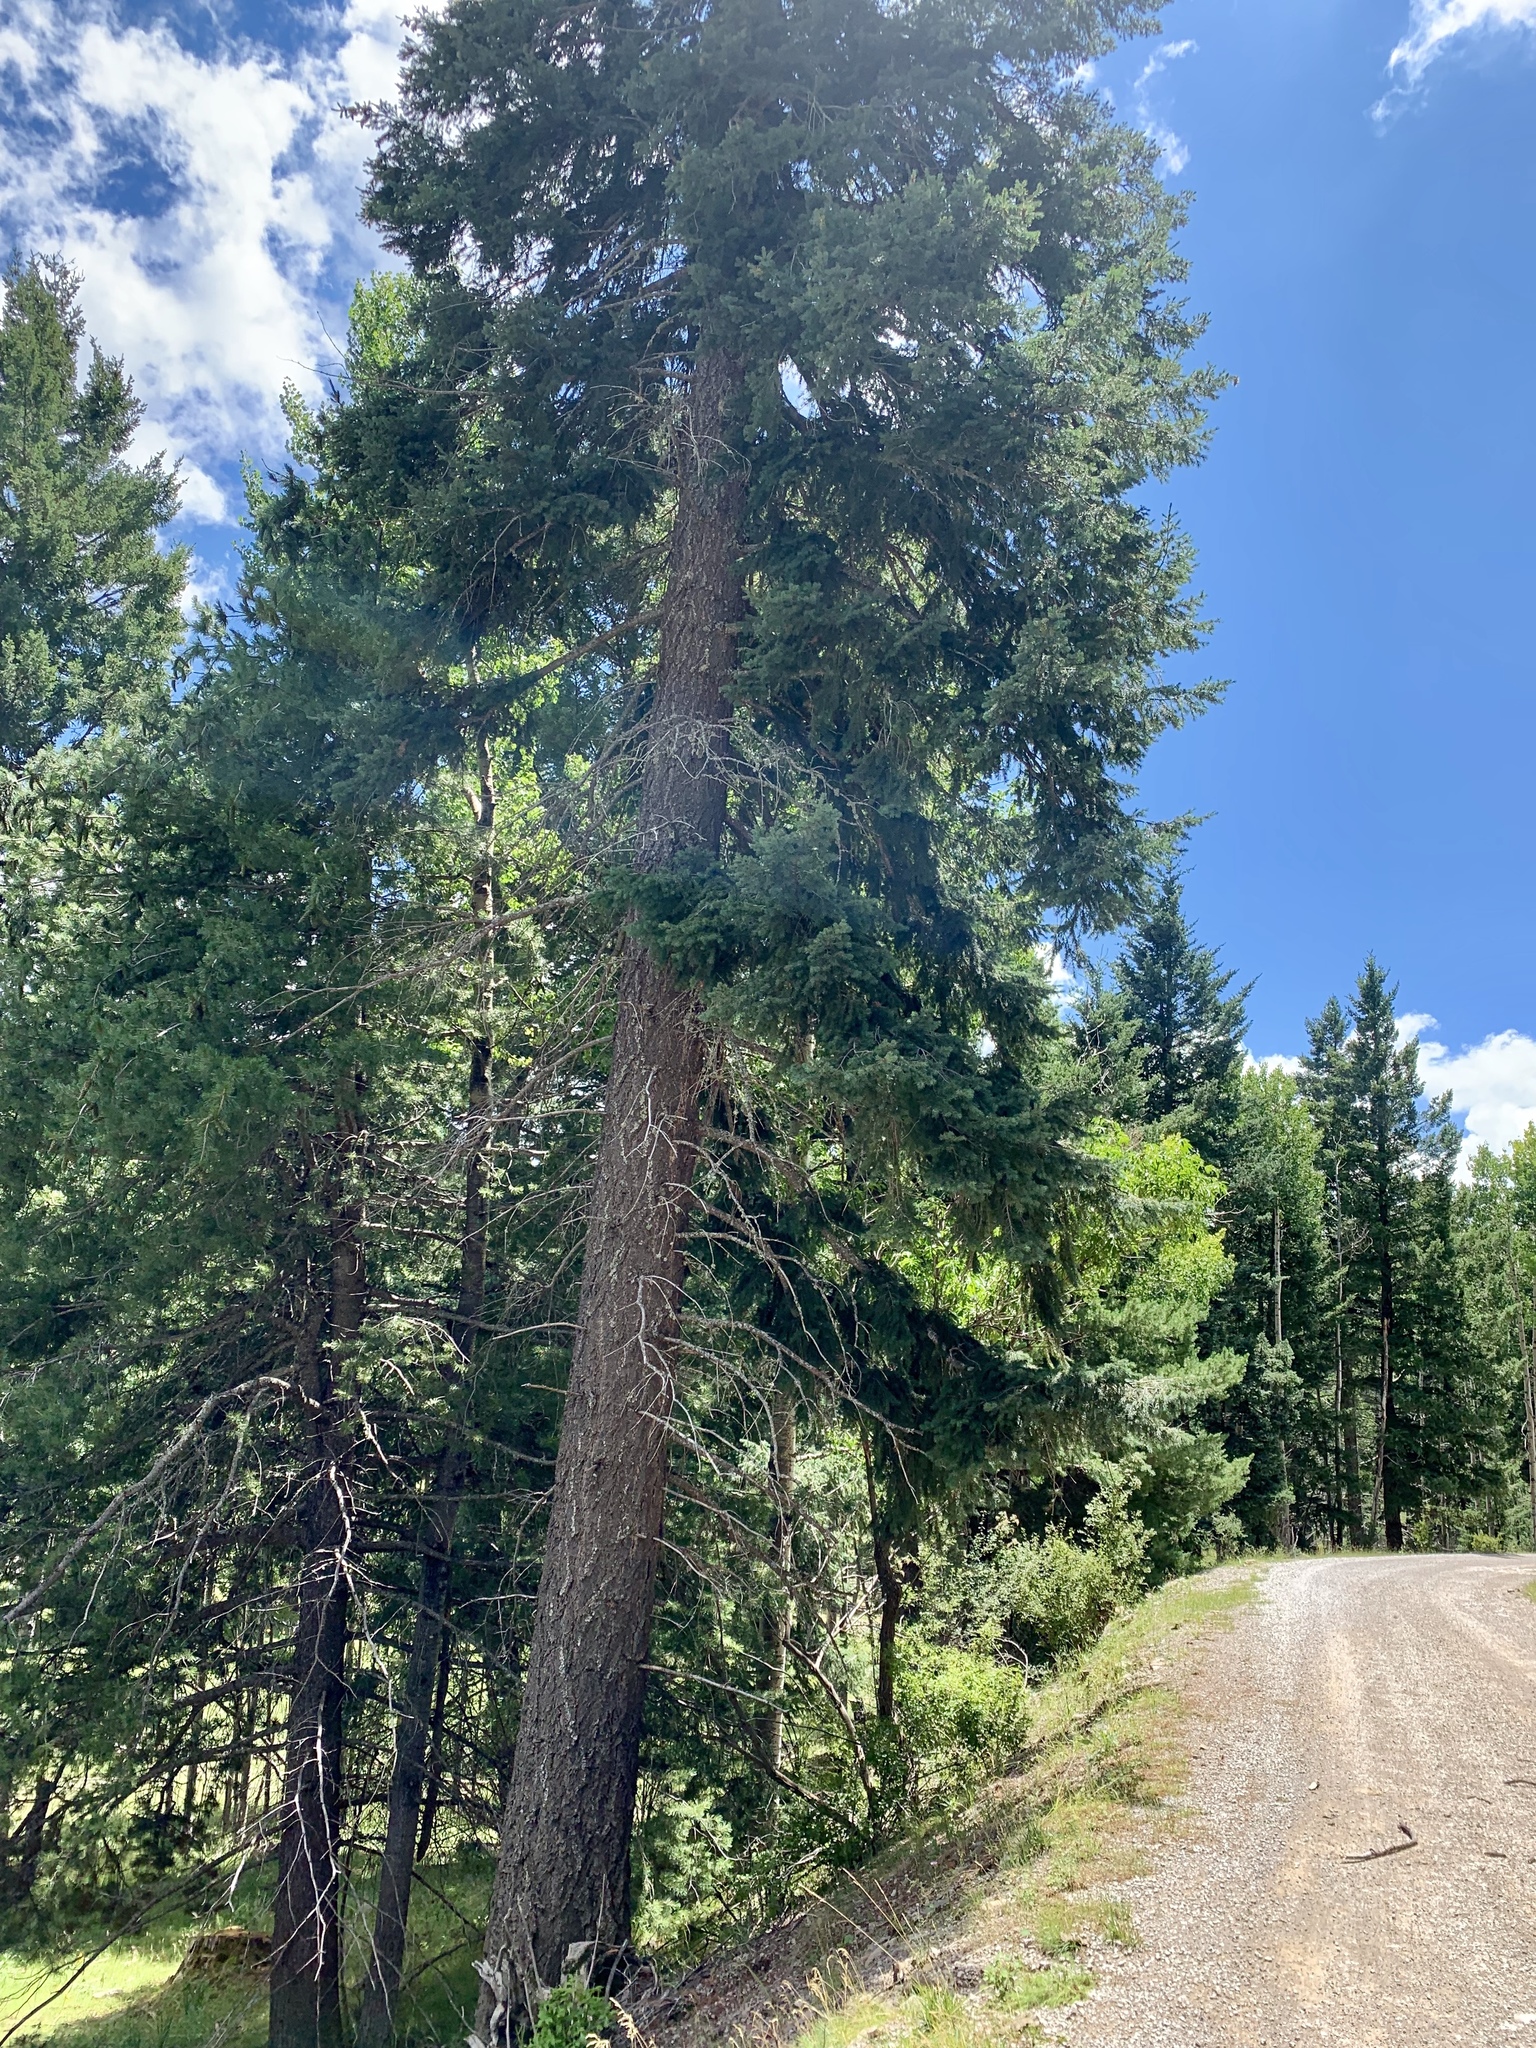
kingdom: Plantae
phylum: Tracheophyta
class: Pinopsida
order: Pinales
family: Pinaceae
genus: Pseudotsuga
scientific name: Pseudotsuga menziesii
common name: Douglas fir
